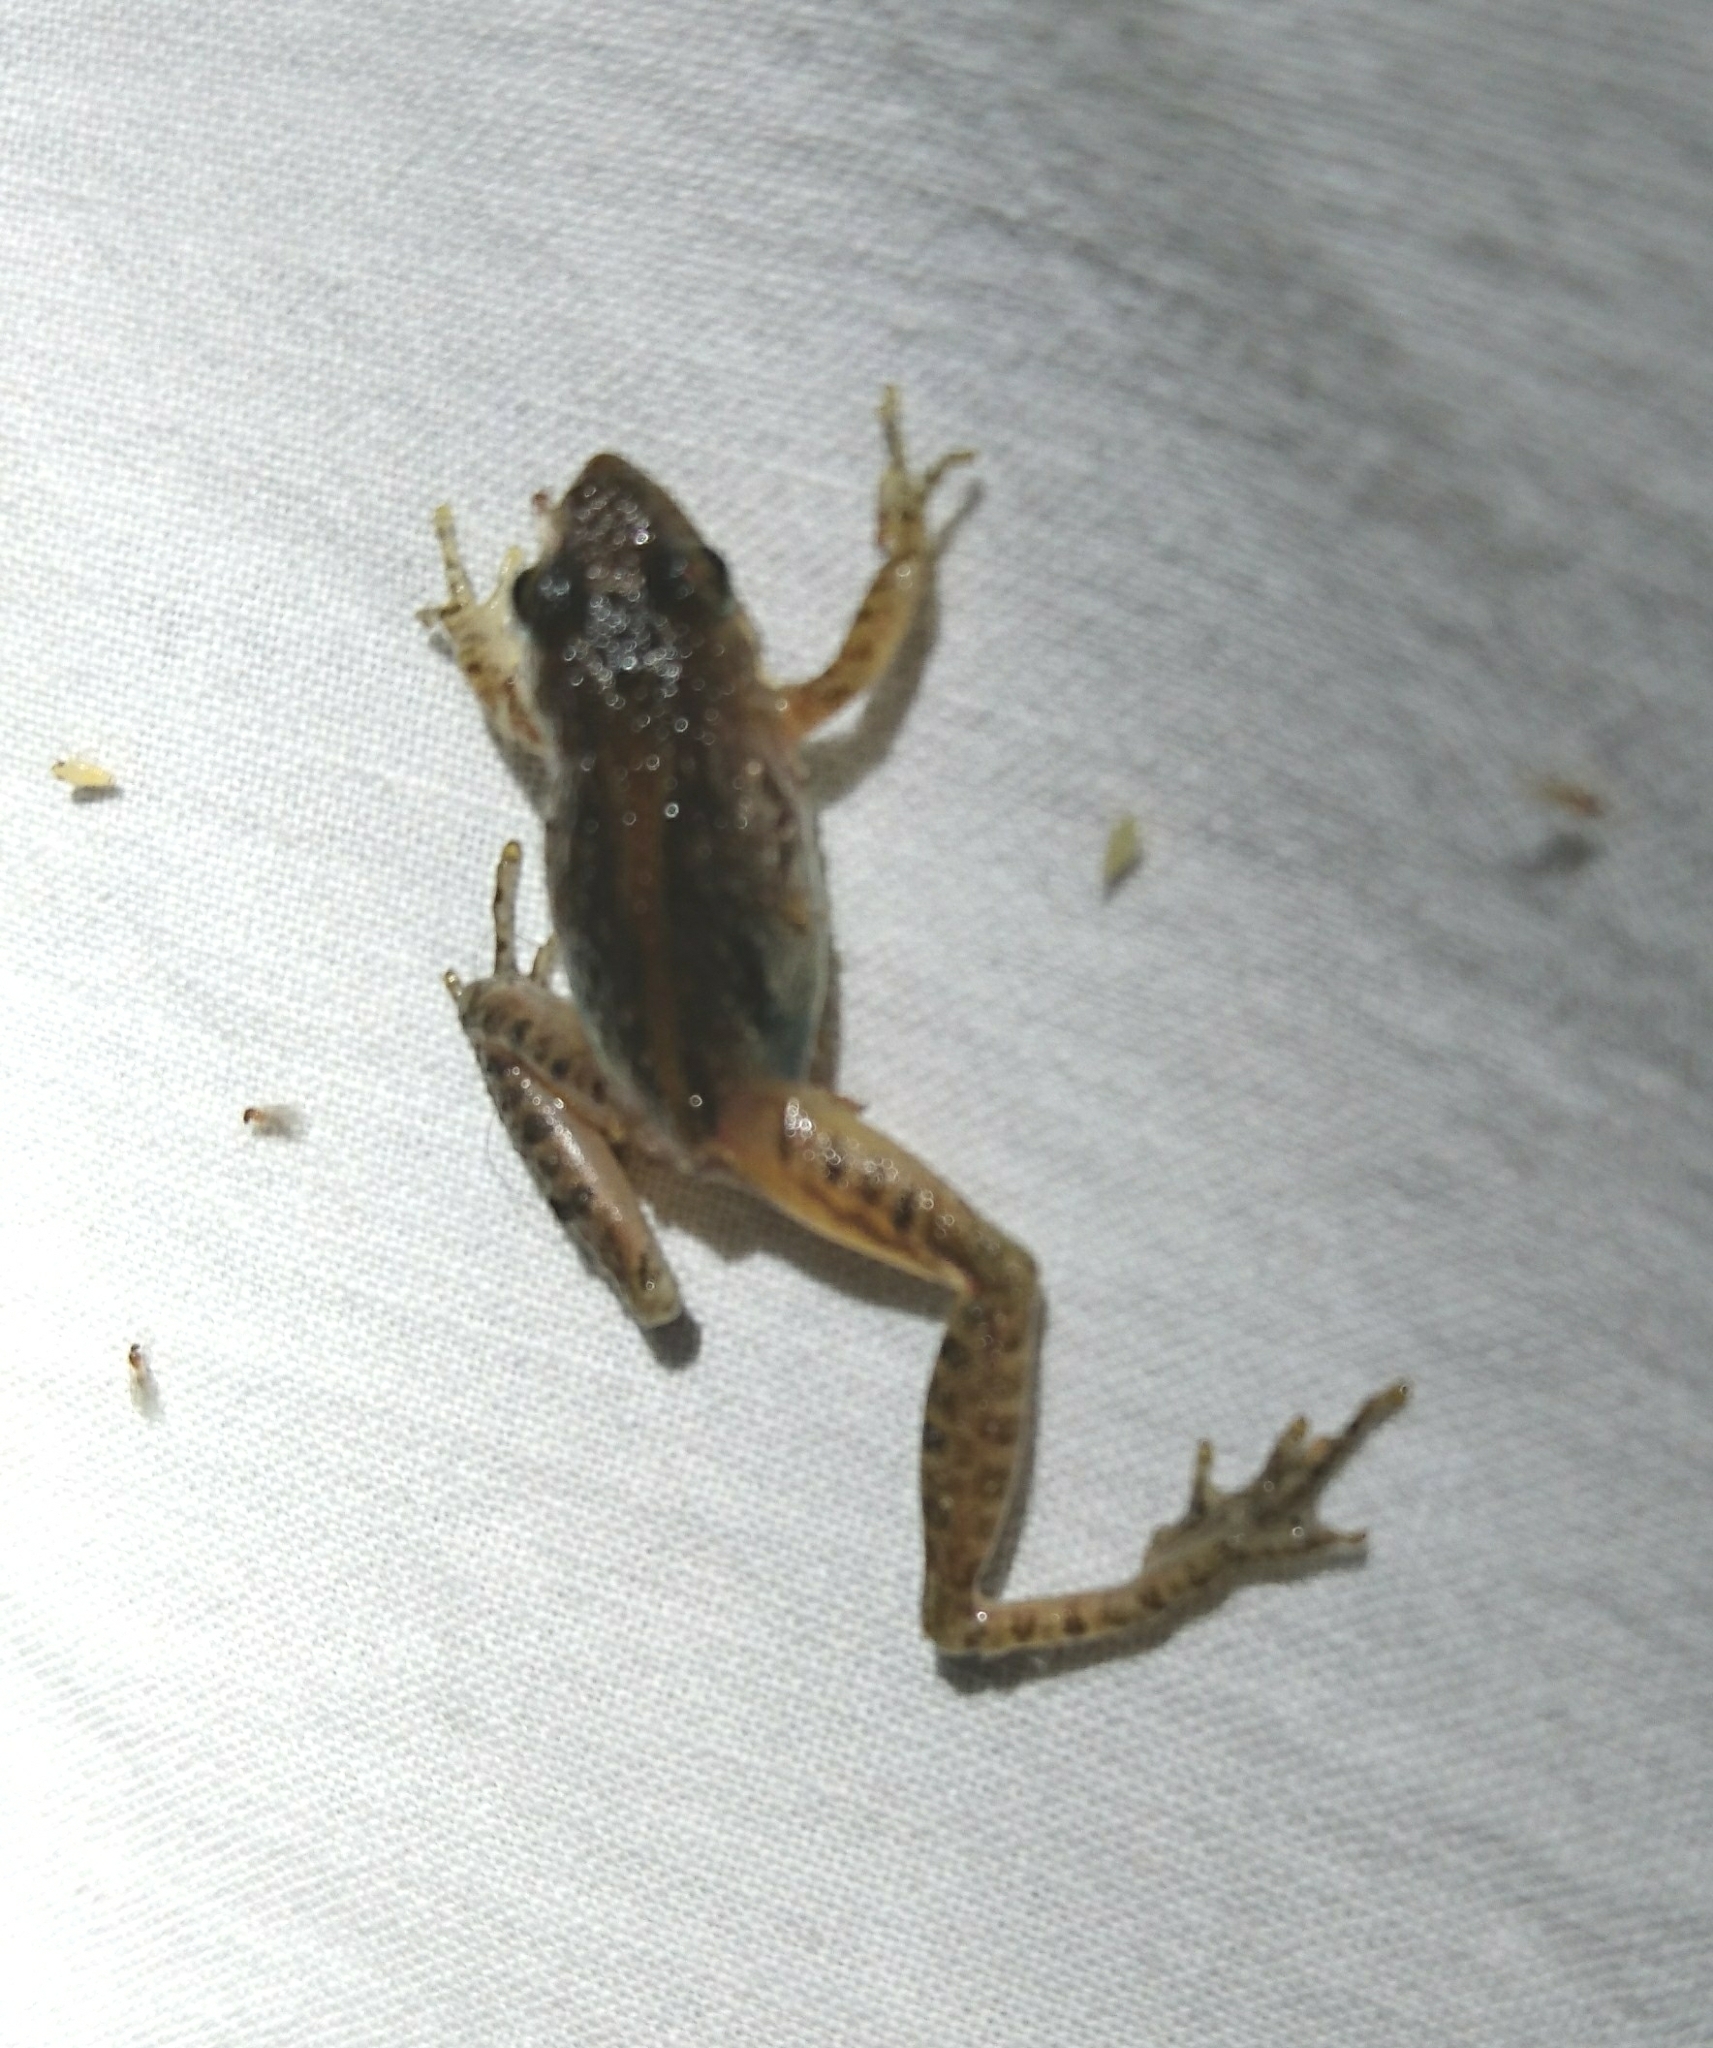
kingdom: Animalia
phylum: Chordata
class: Amphibia
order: Anura
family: Hylidae
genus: Acris
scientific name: Acris gryllus
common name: Southern cricket frog
